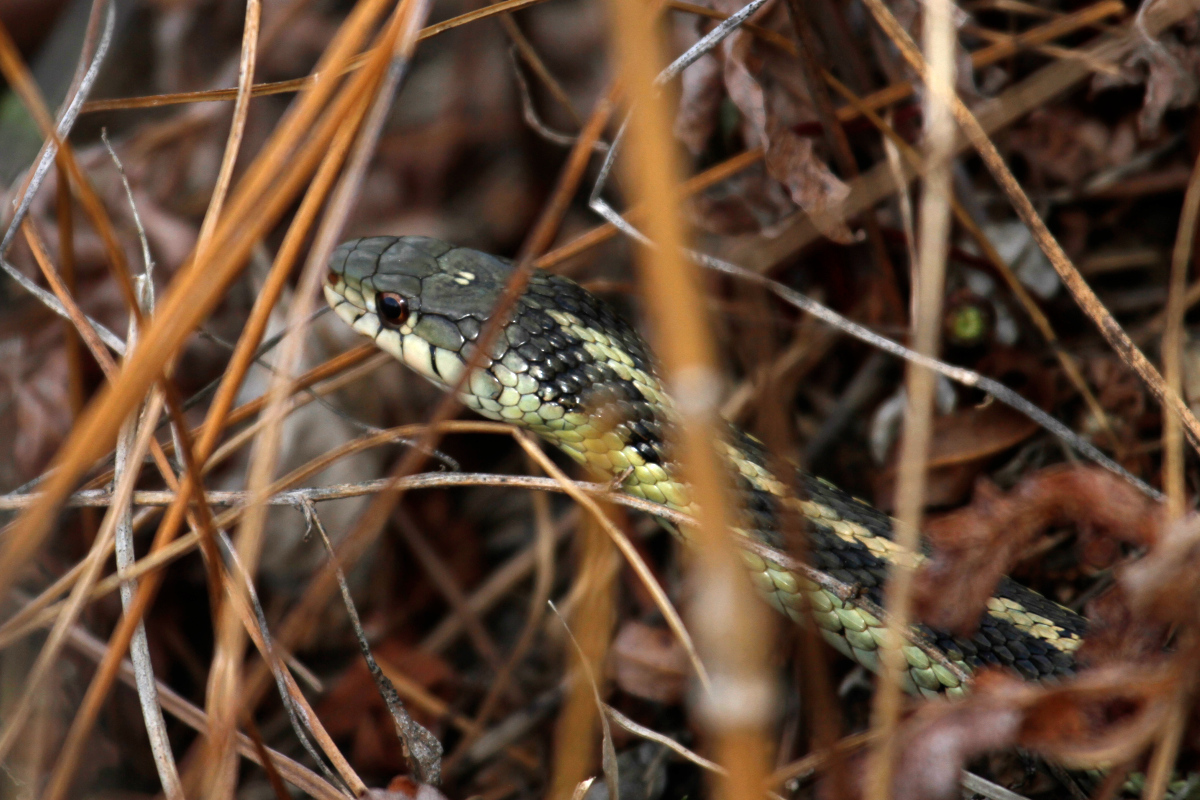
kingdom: Animalia
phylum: Chordata
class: Squamata
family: Colubridae
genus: Thamnophis
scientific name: Thamnophis sirtalis
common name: Common garter snake
